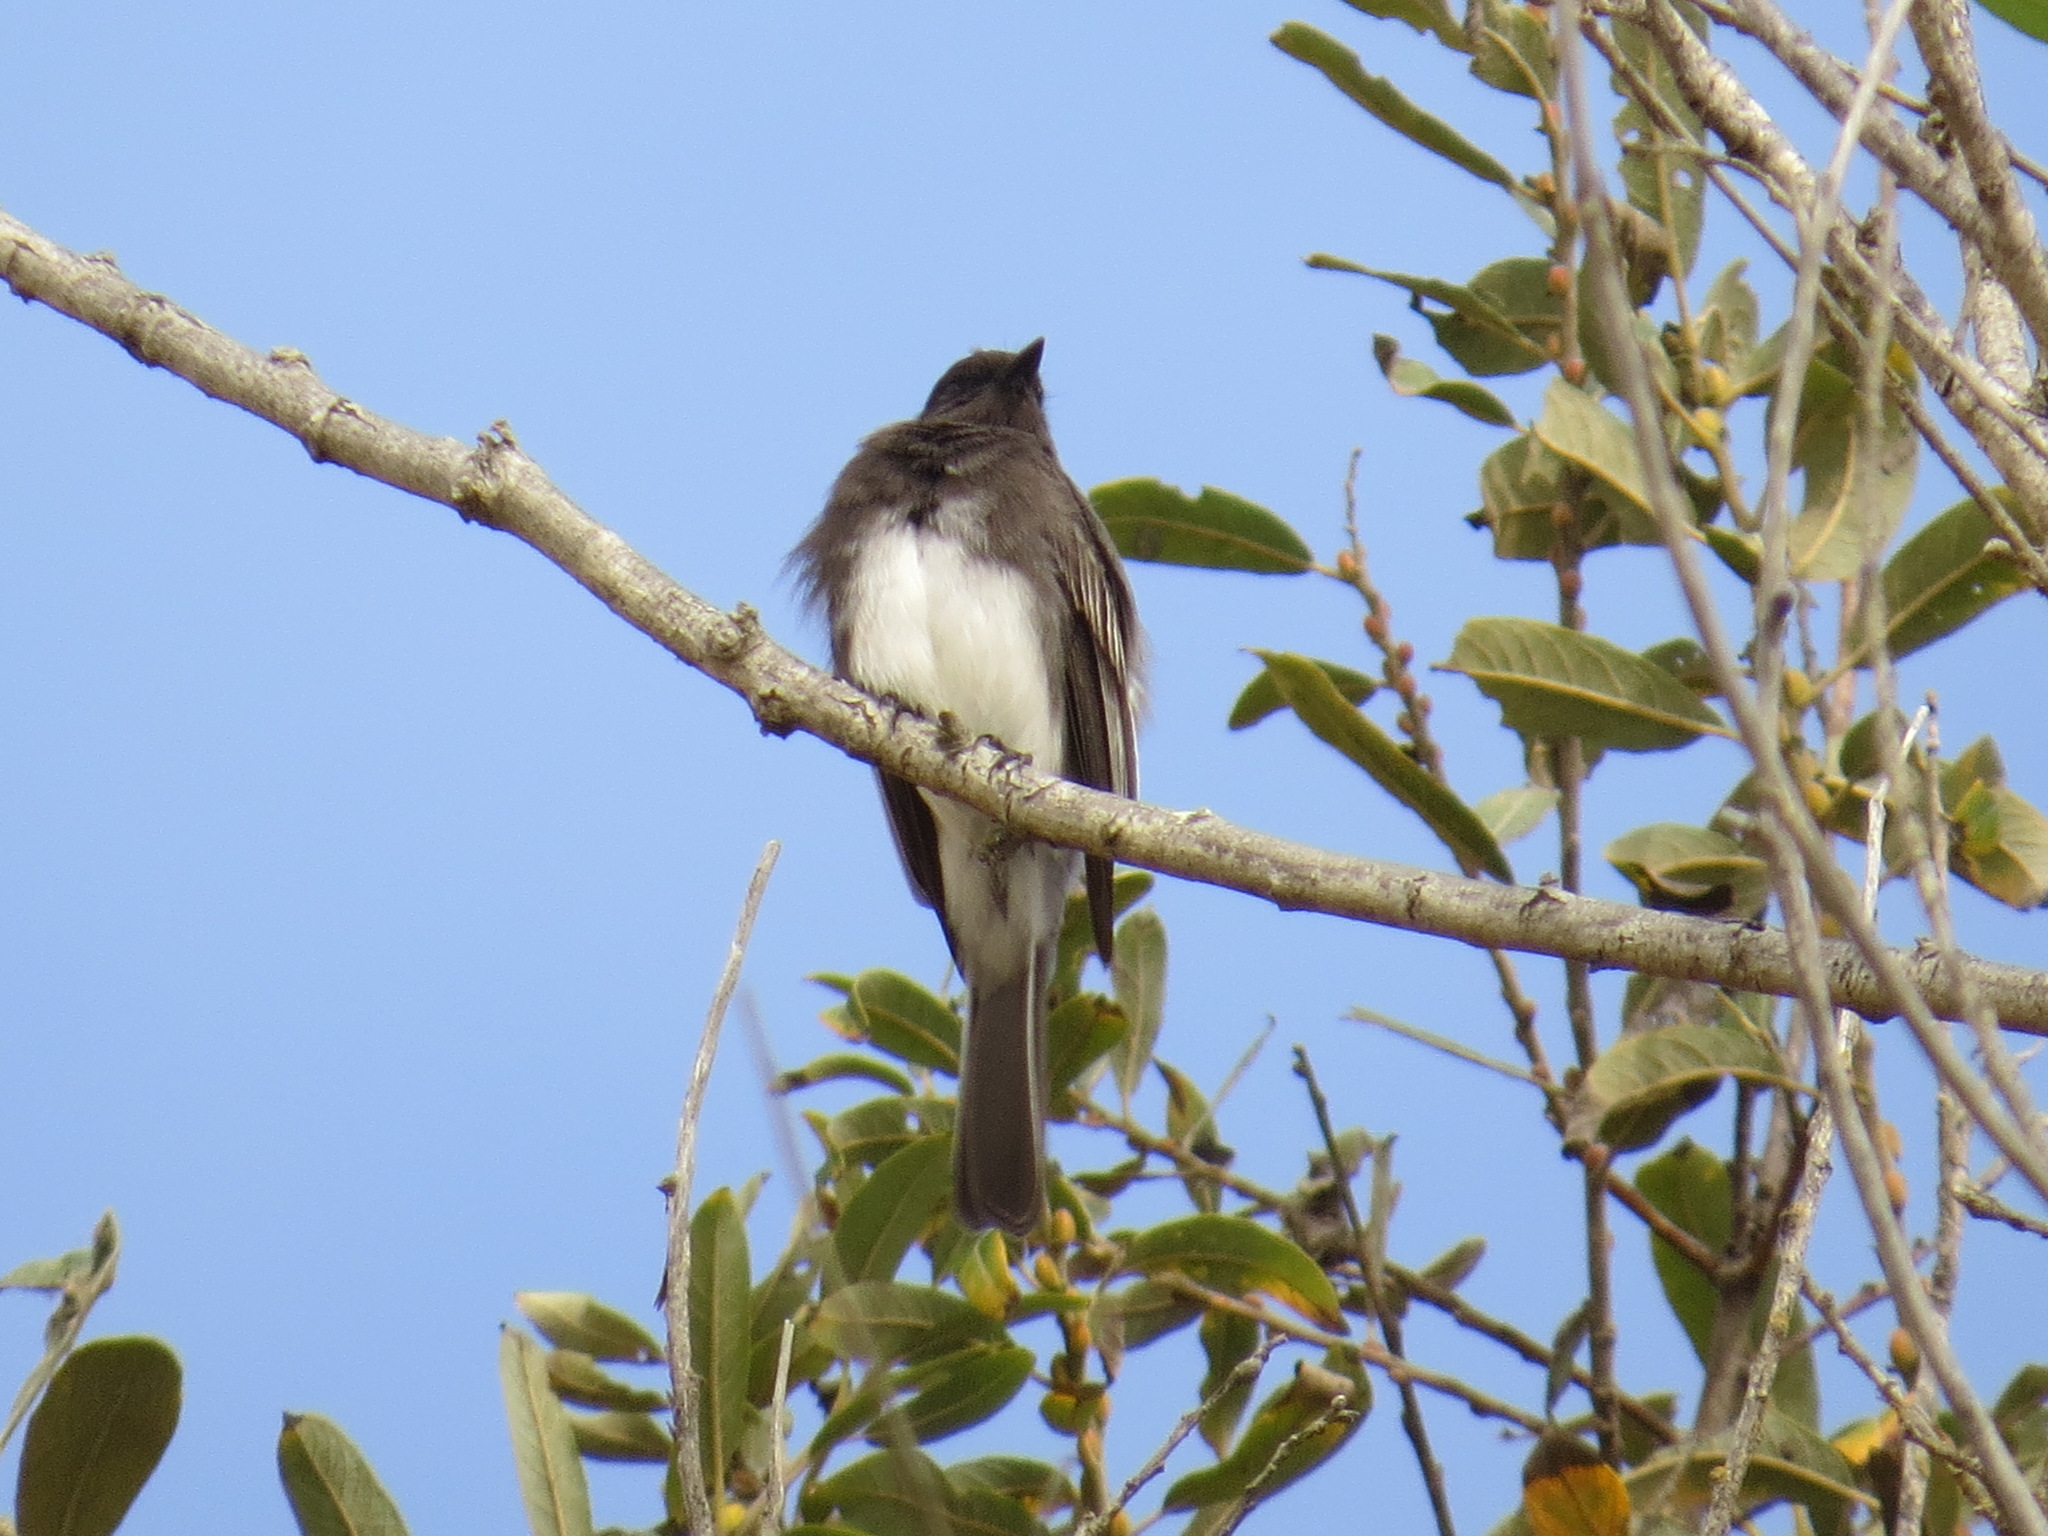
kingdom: Animalia
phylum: Chordata
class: Aves
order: Passeriformes
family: Tyrannidae
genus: Sayornis
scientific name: Sayornis nigricans
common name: Black phoebe
